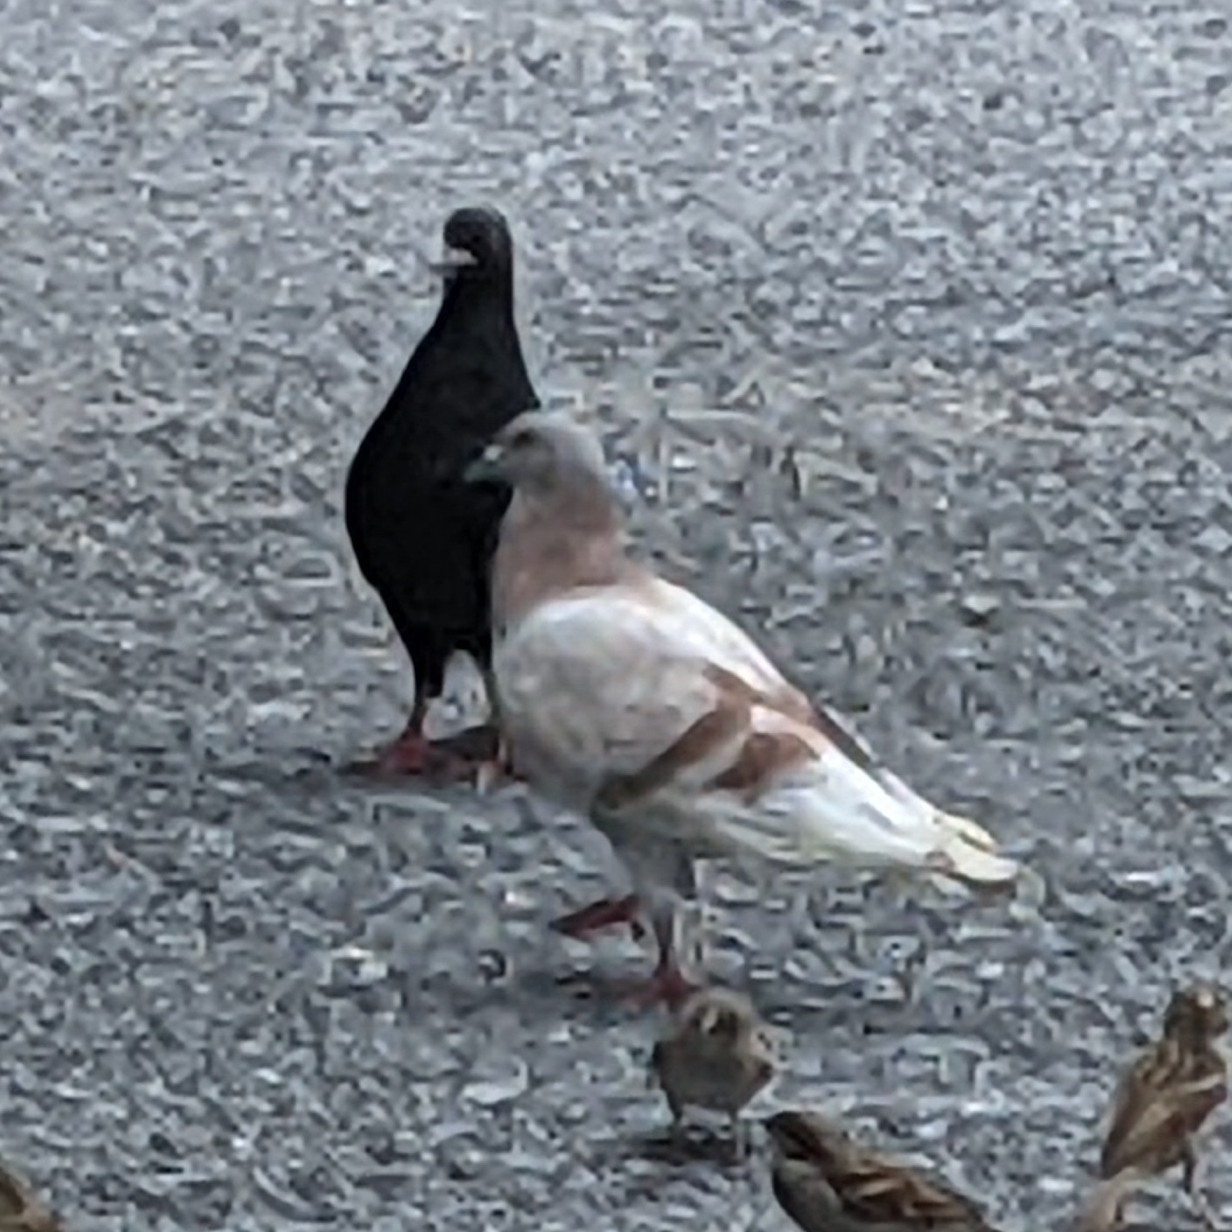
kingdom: Animalia
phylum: Chordata
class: Aves
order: Columbiformes
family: Columbidae
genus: Columba
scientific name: Columba livia
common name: Rock pigeon
